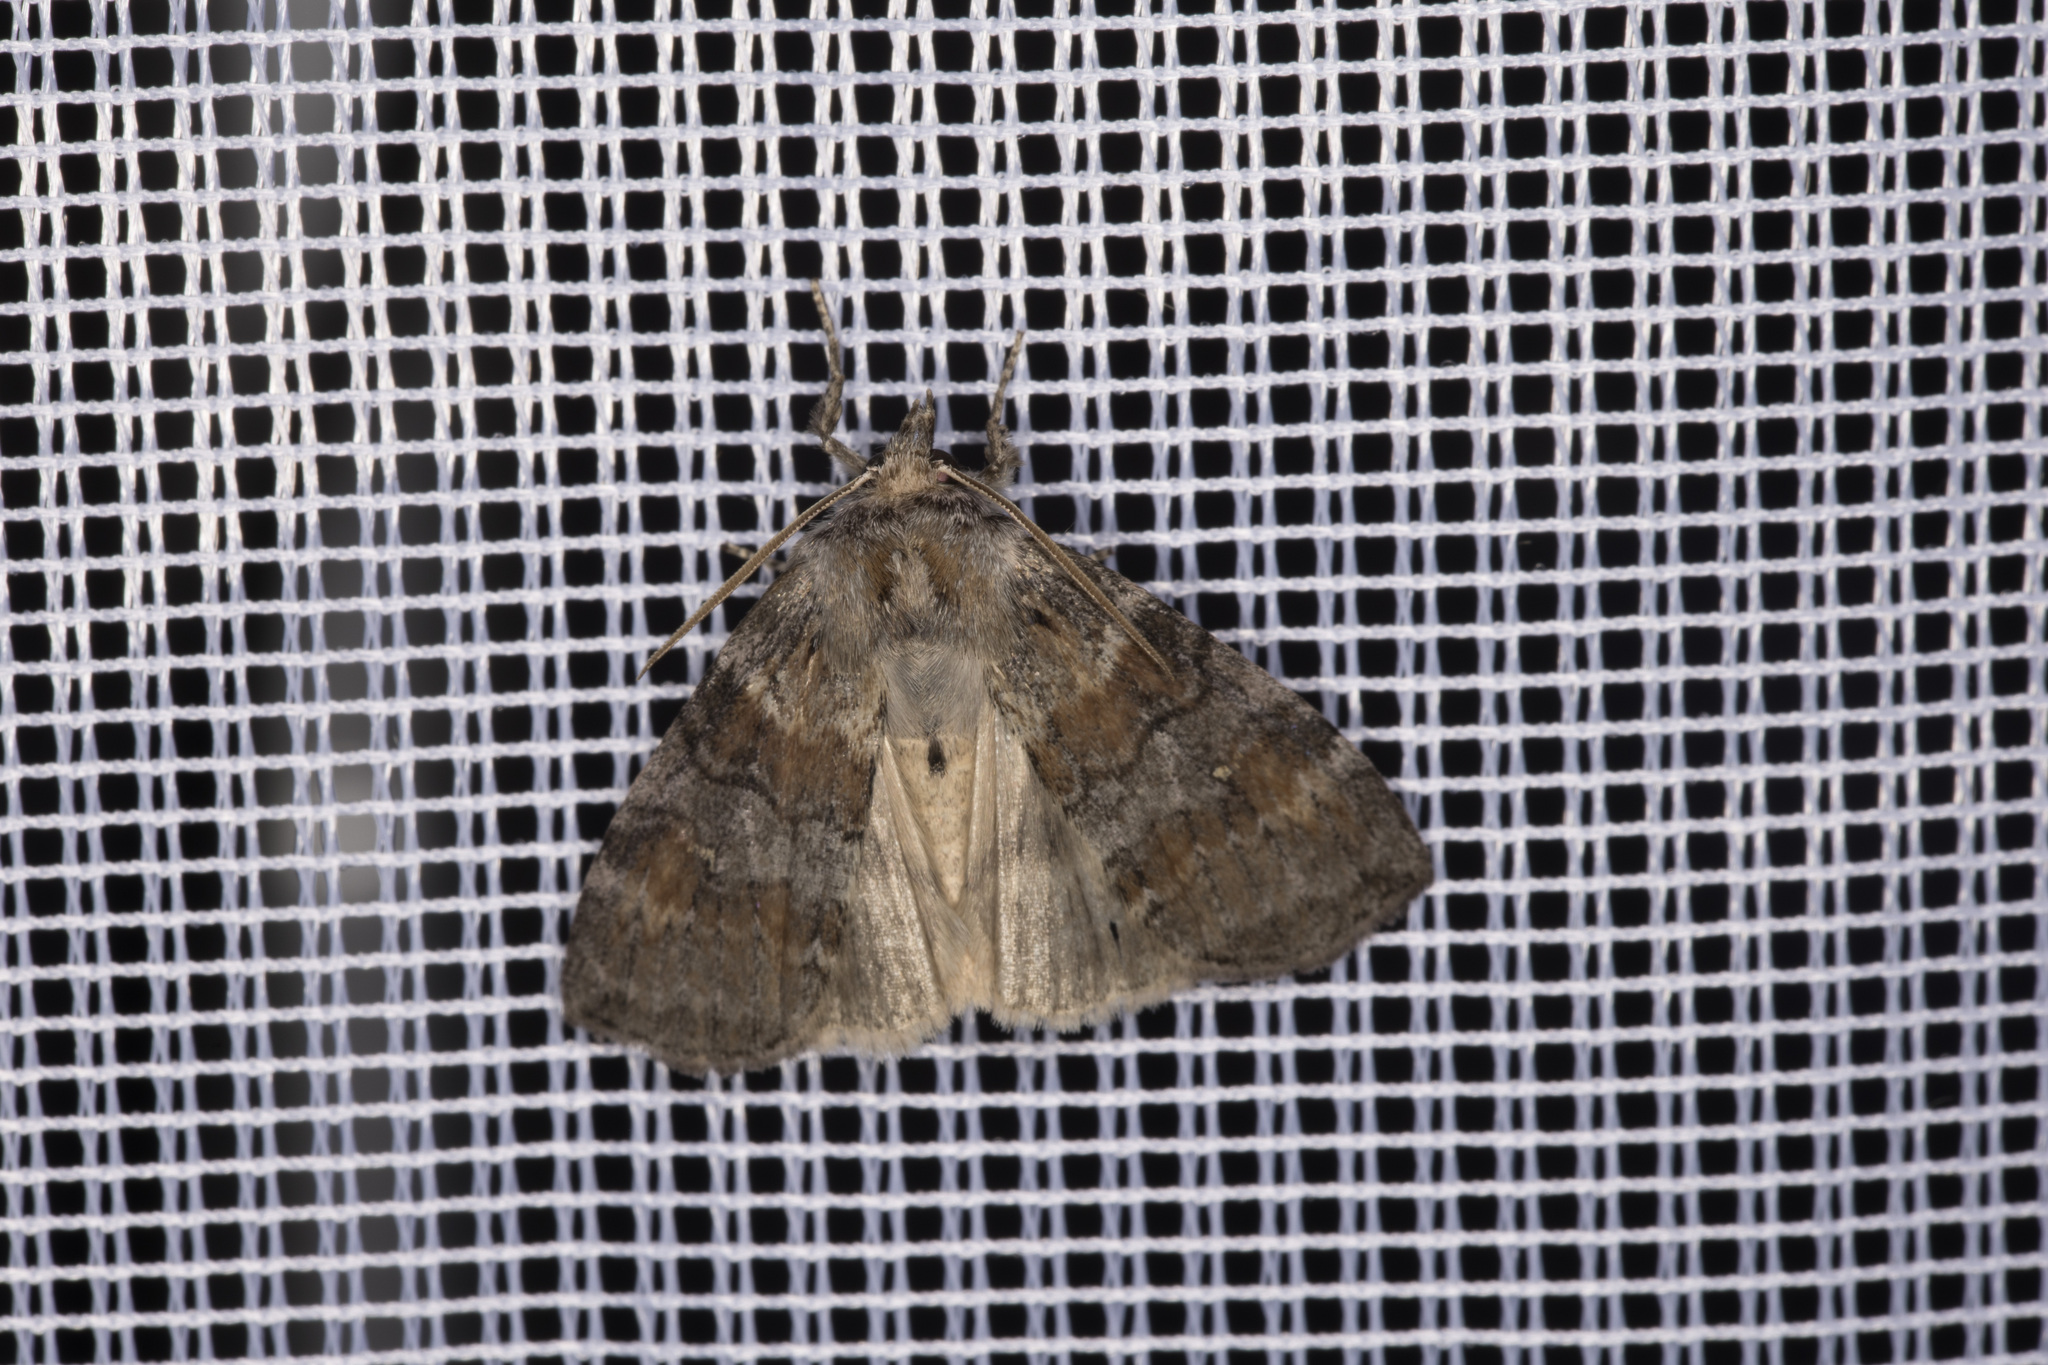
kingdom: Animalia
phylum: Arthropoda
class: Insecta
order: Lepidoptera
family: Drepanidae
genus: Cymatophorina
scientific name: Cymatophorina diluta
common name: Oak lutestring
